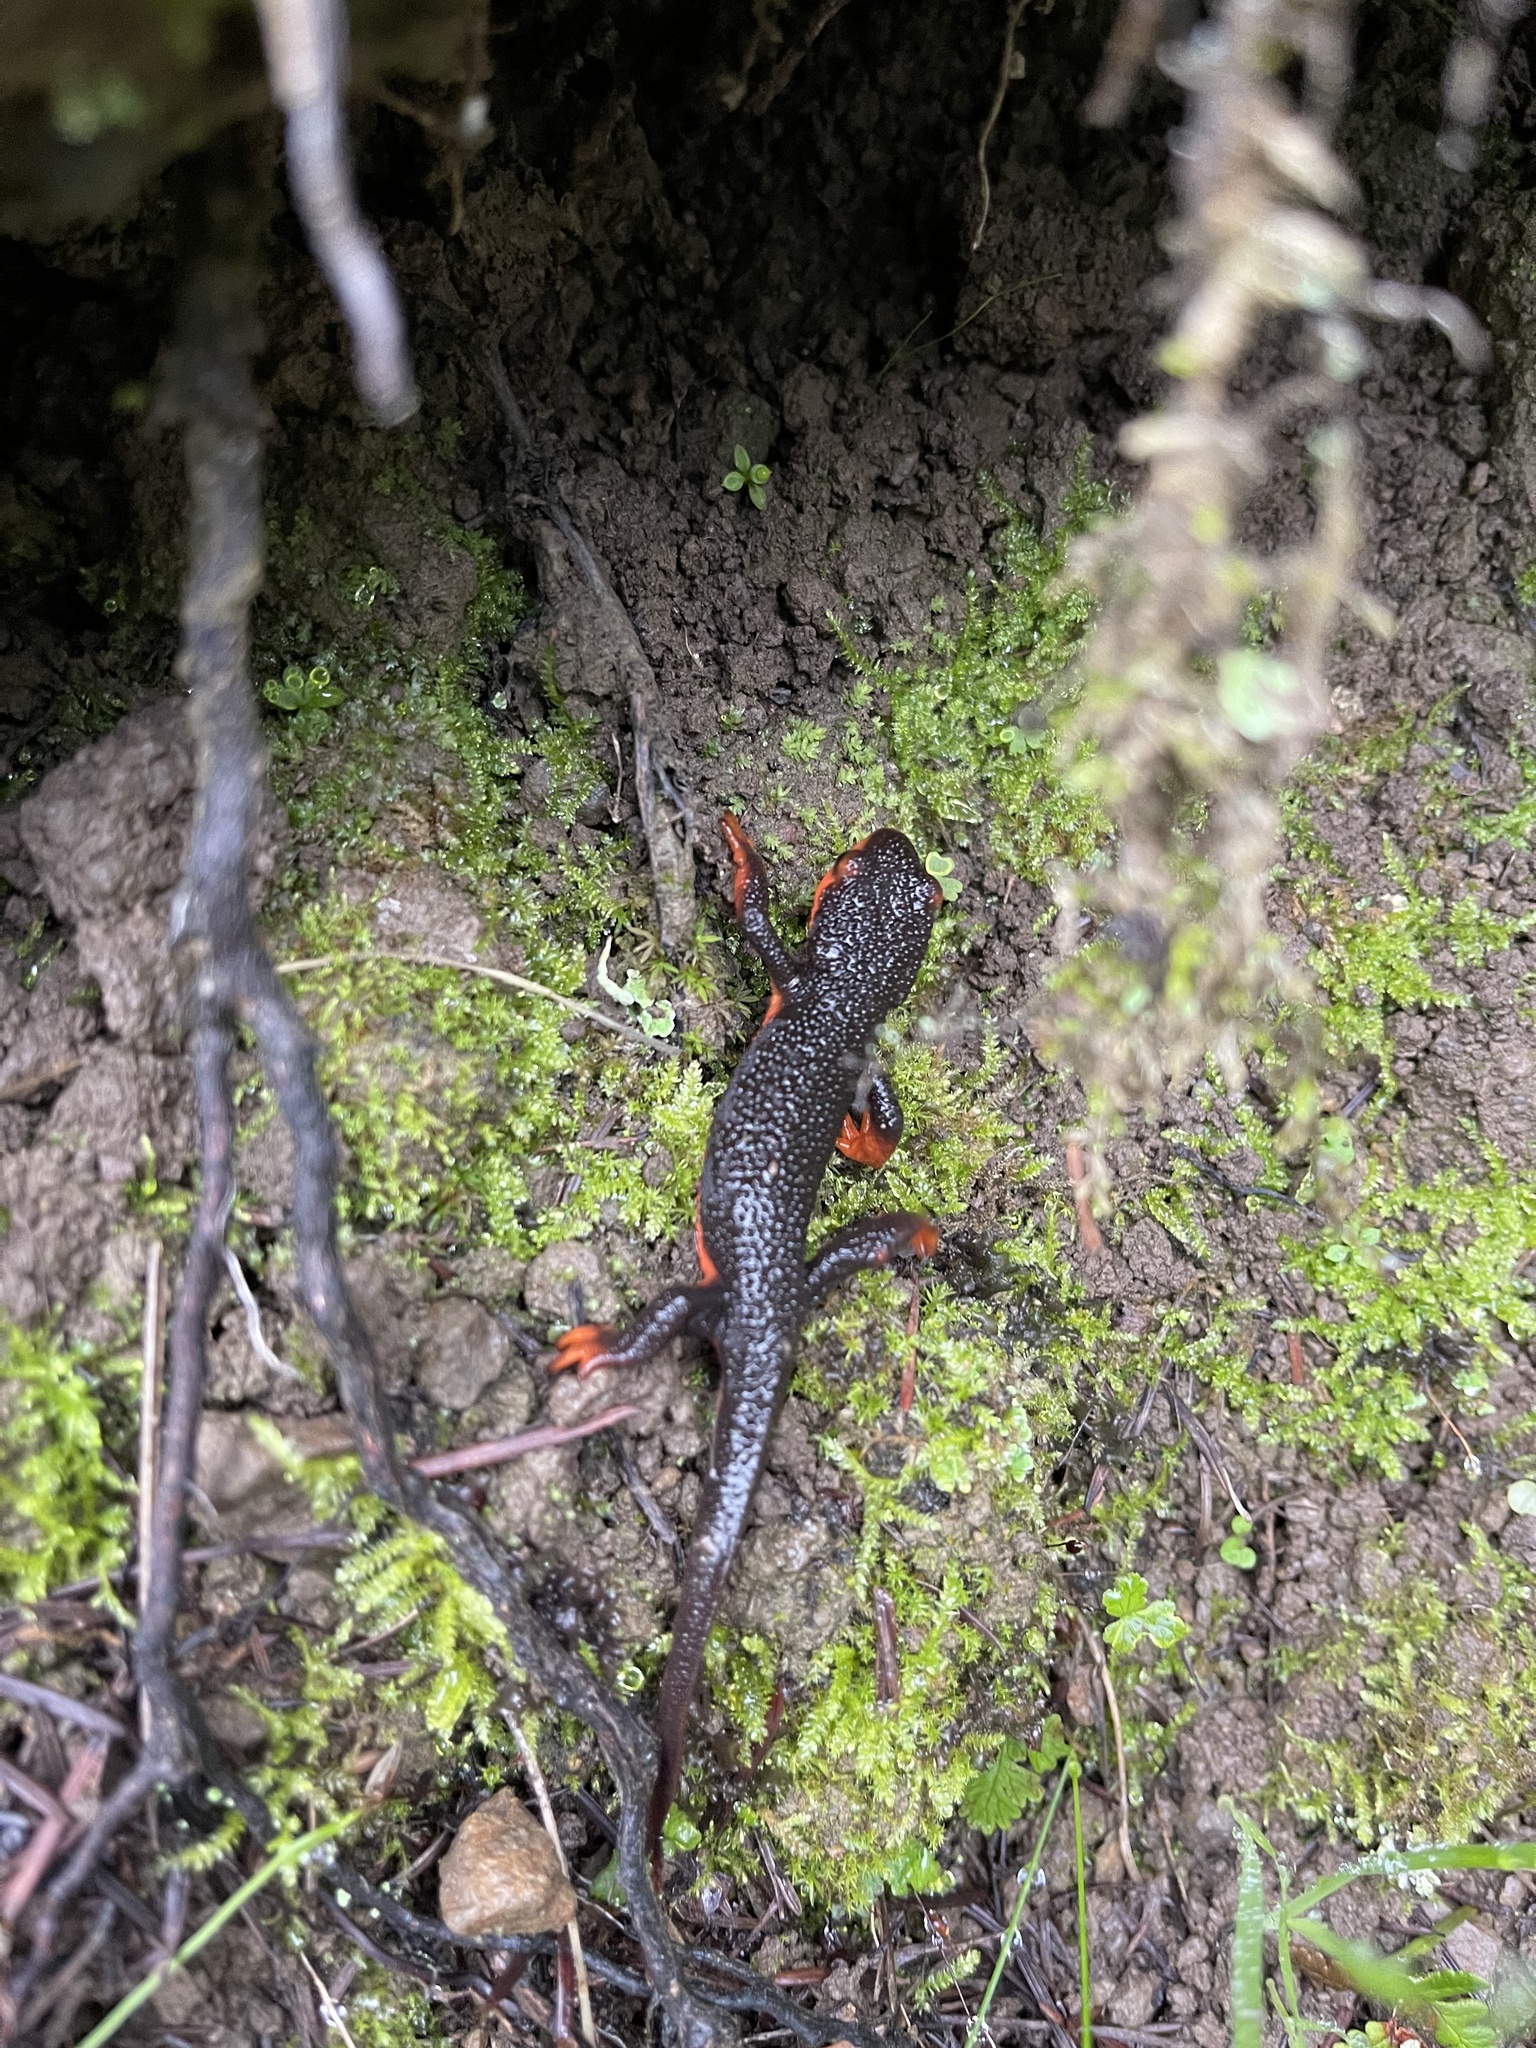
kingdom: Animalia
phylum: Chordata
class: Amphibia
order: Caudata
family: Salamandridae
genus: Taricha
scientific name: Taricha rivularis
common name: Red-bellied newt
